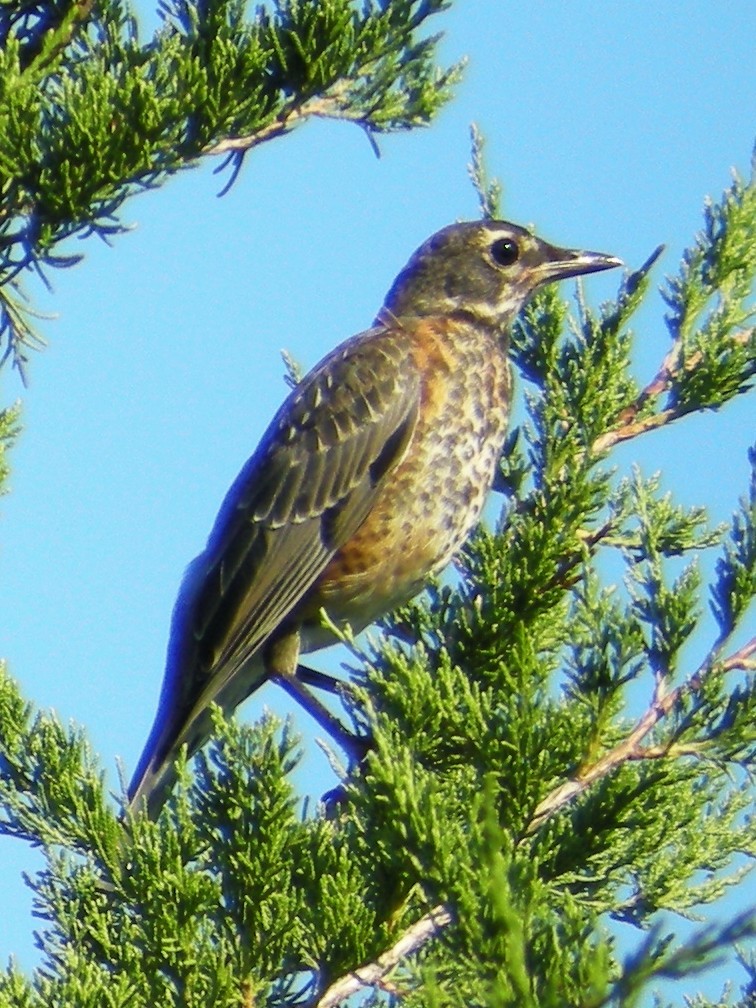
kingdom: Animalia
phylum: Chordata
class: Aves
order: Passeriformes
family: Turdidae
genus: Turdus
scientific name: Turdus migratorius
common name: American robin
